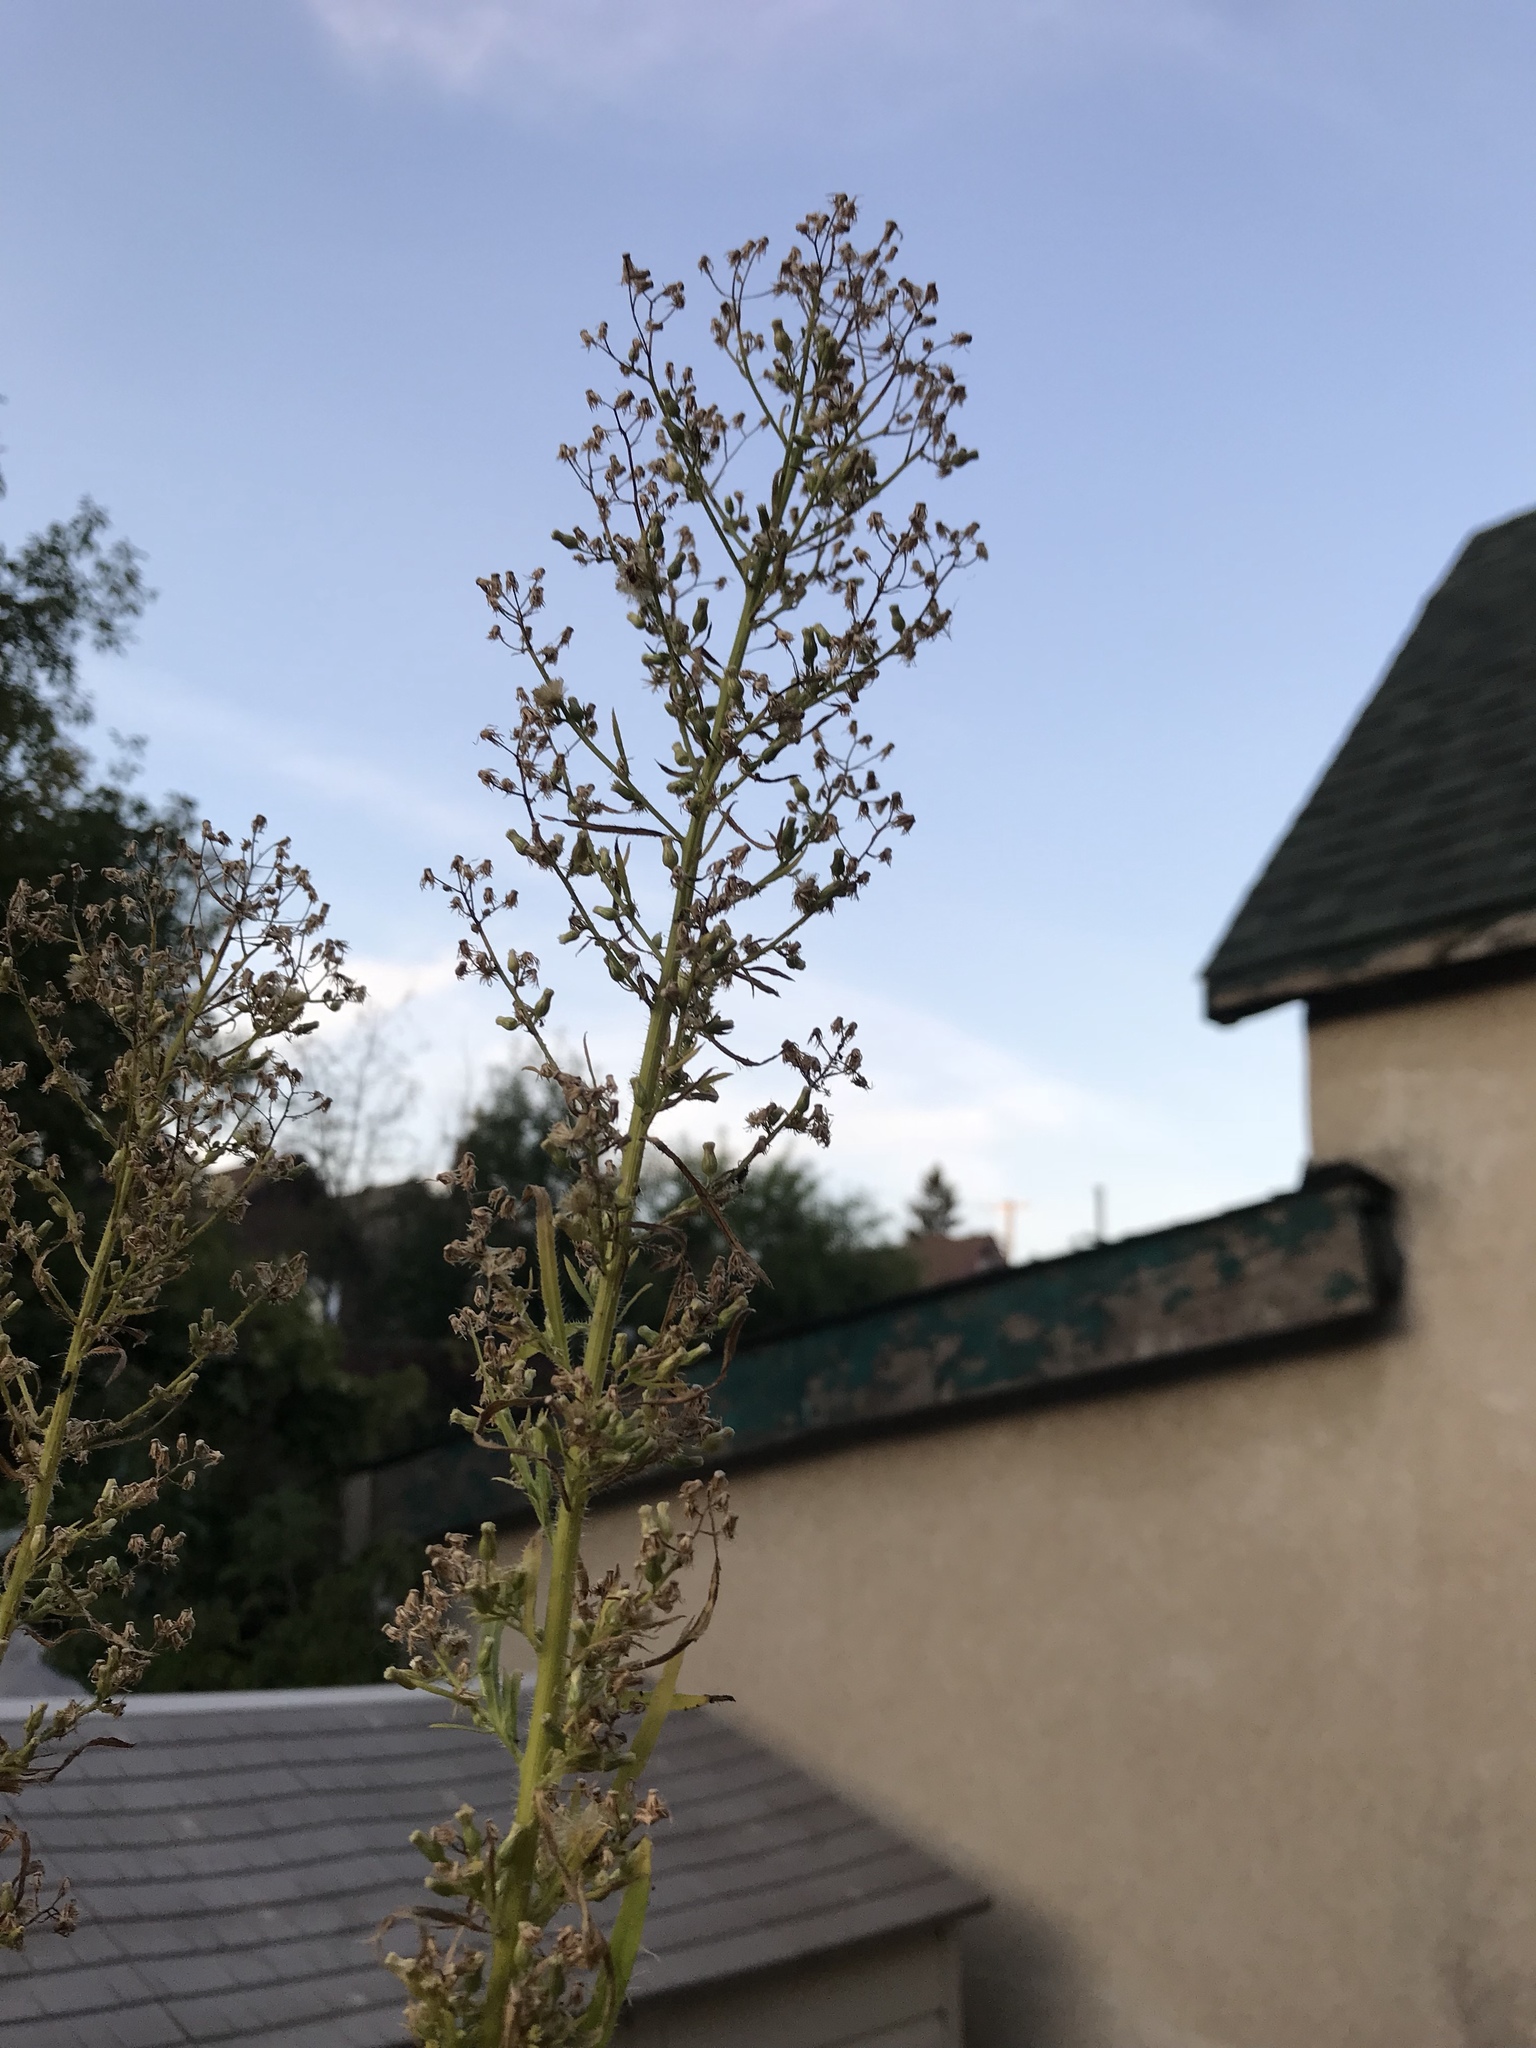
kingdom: Plantae
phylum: Tracheophyta
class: Magnoliopsida
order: Asterales
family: Asteraceae
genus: Erigeron
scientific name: Erigeron canadensis
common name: Canadian fleabane
